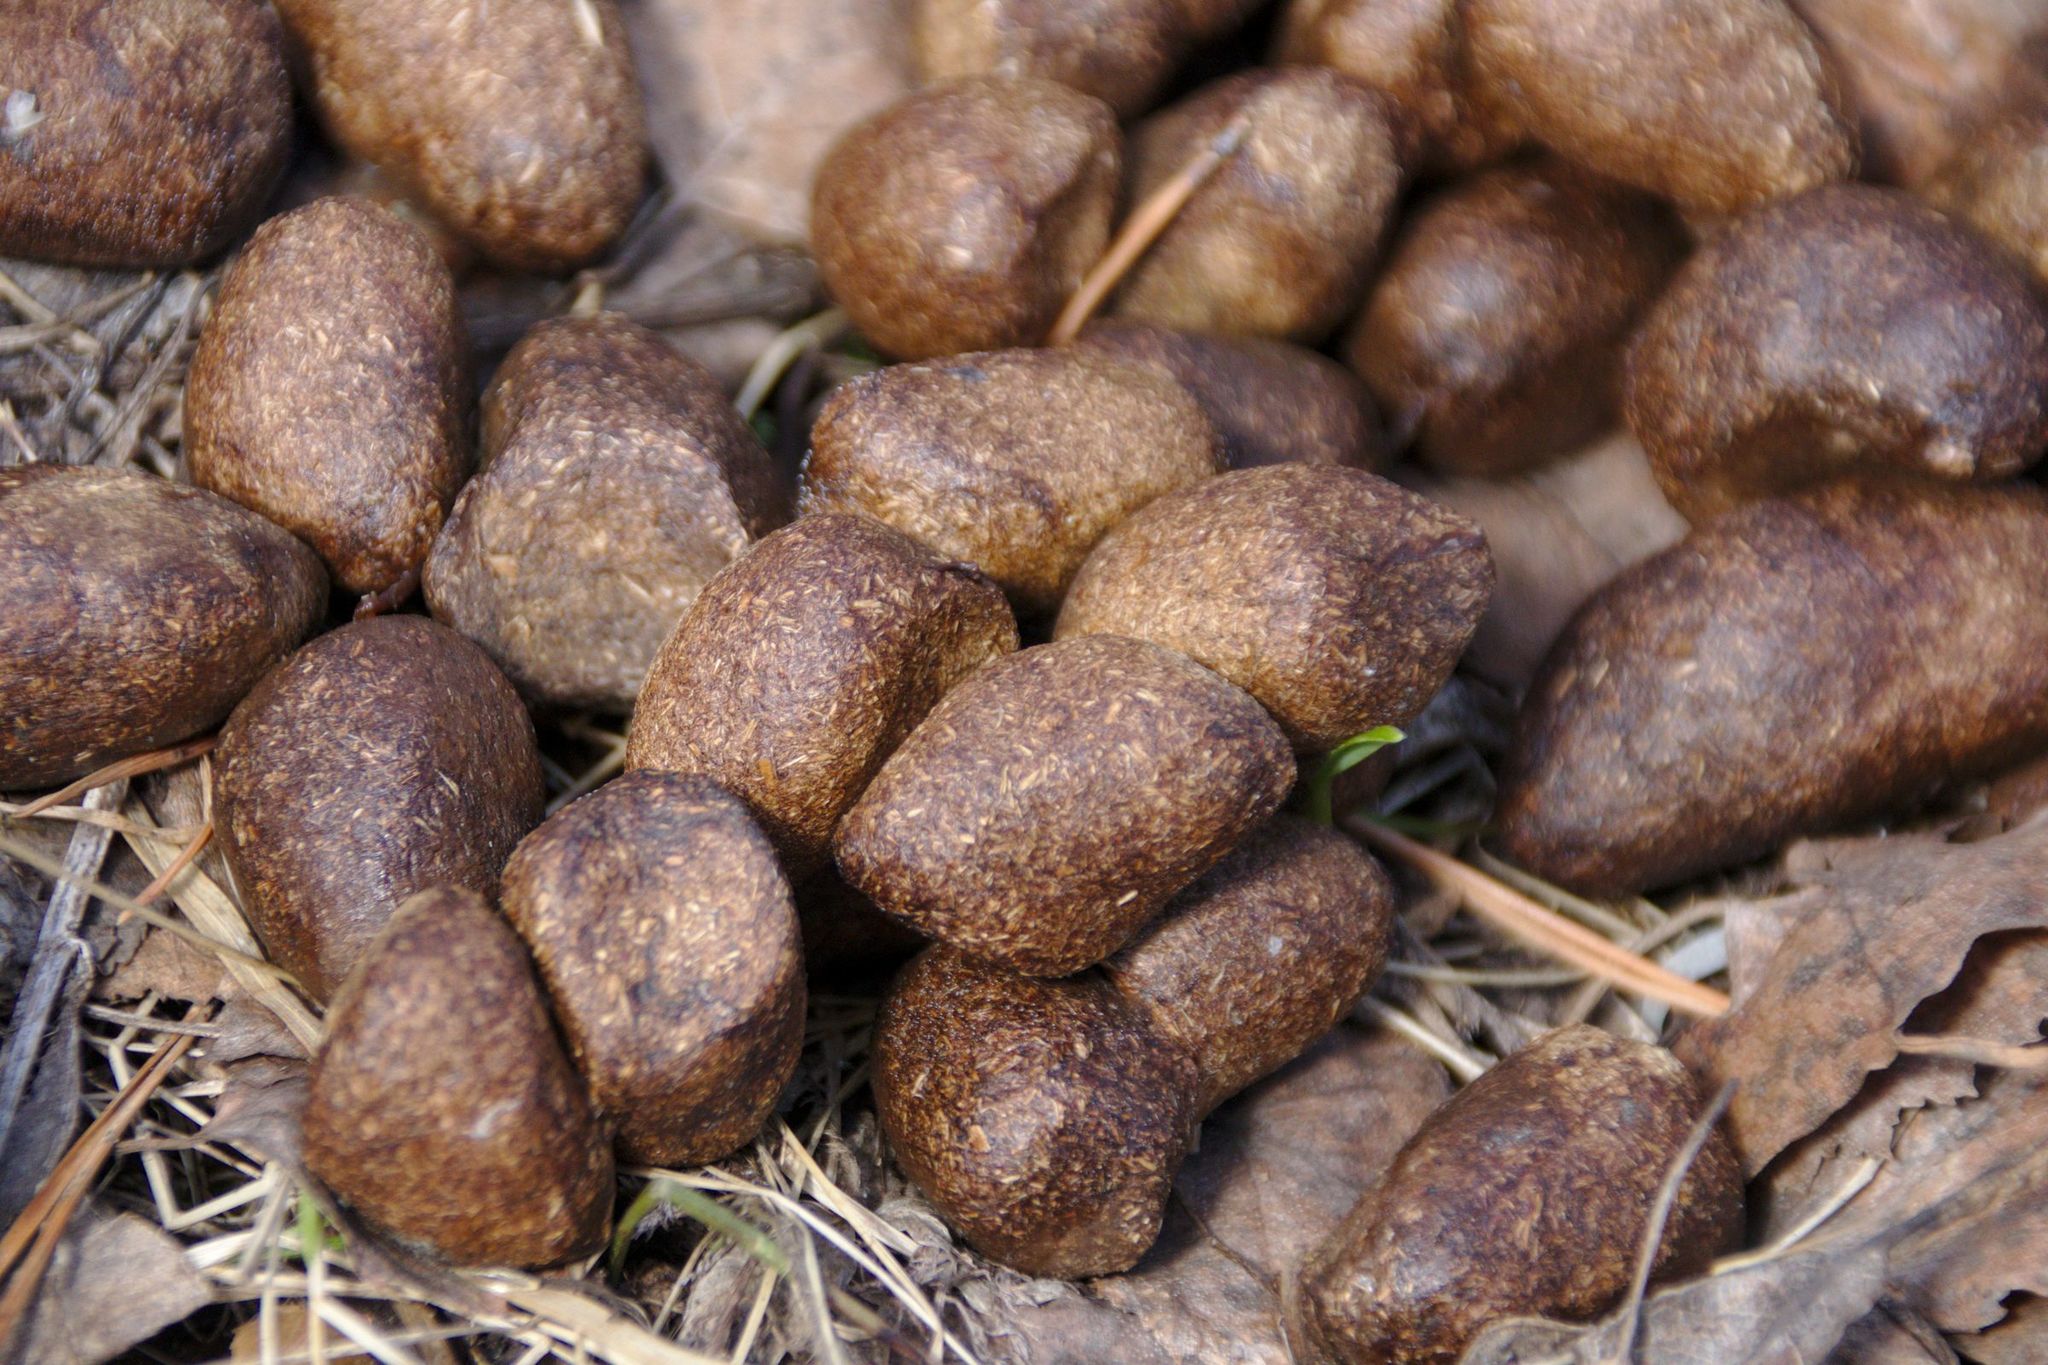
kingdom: Animalia
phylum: Chordata
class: Mammalia
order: Artiodactyla
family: Cervidae
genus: Alces
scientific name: Alces alces
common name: Moose
